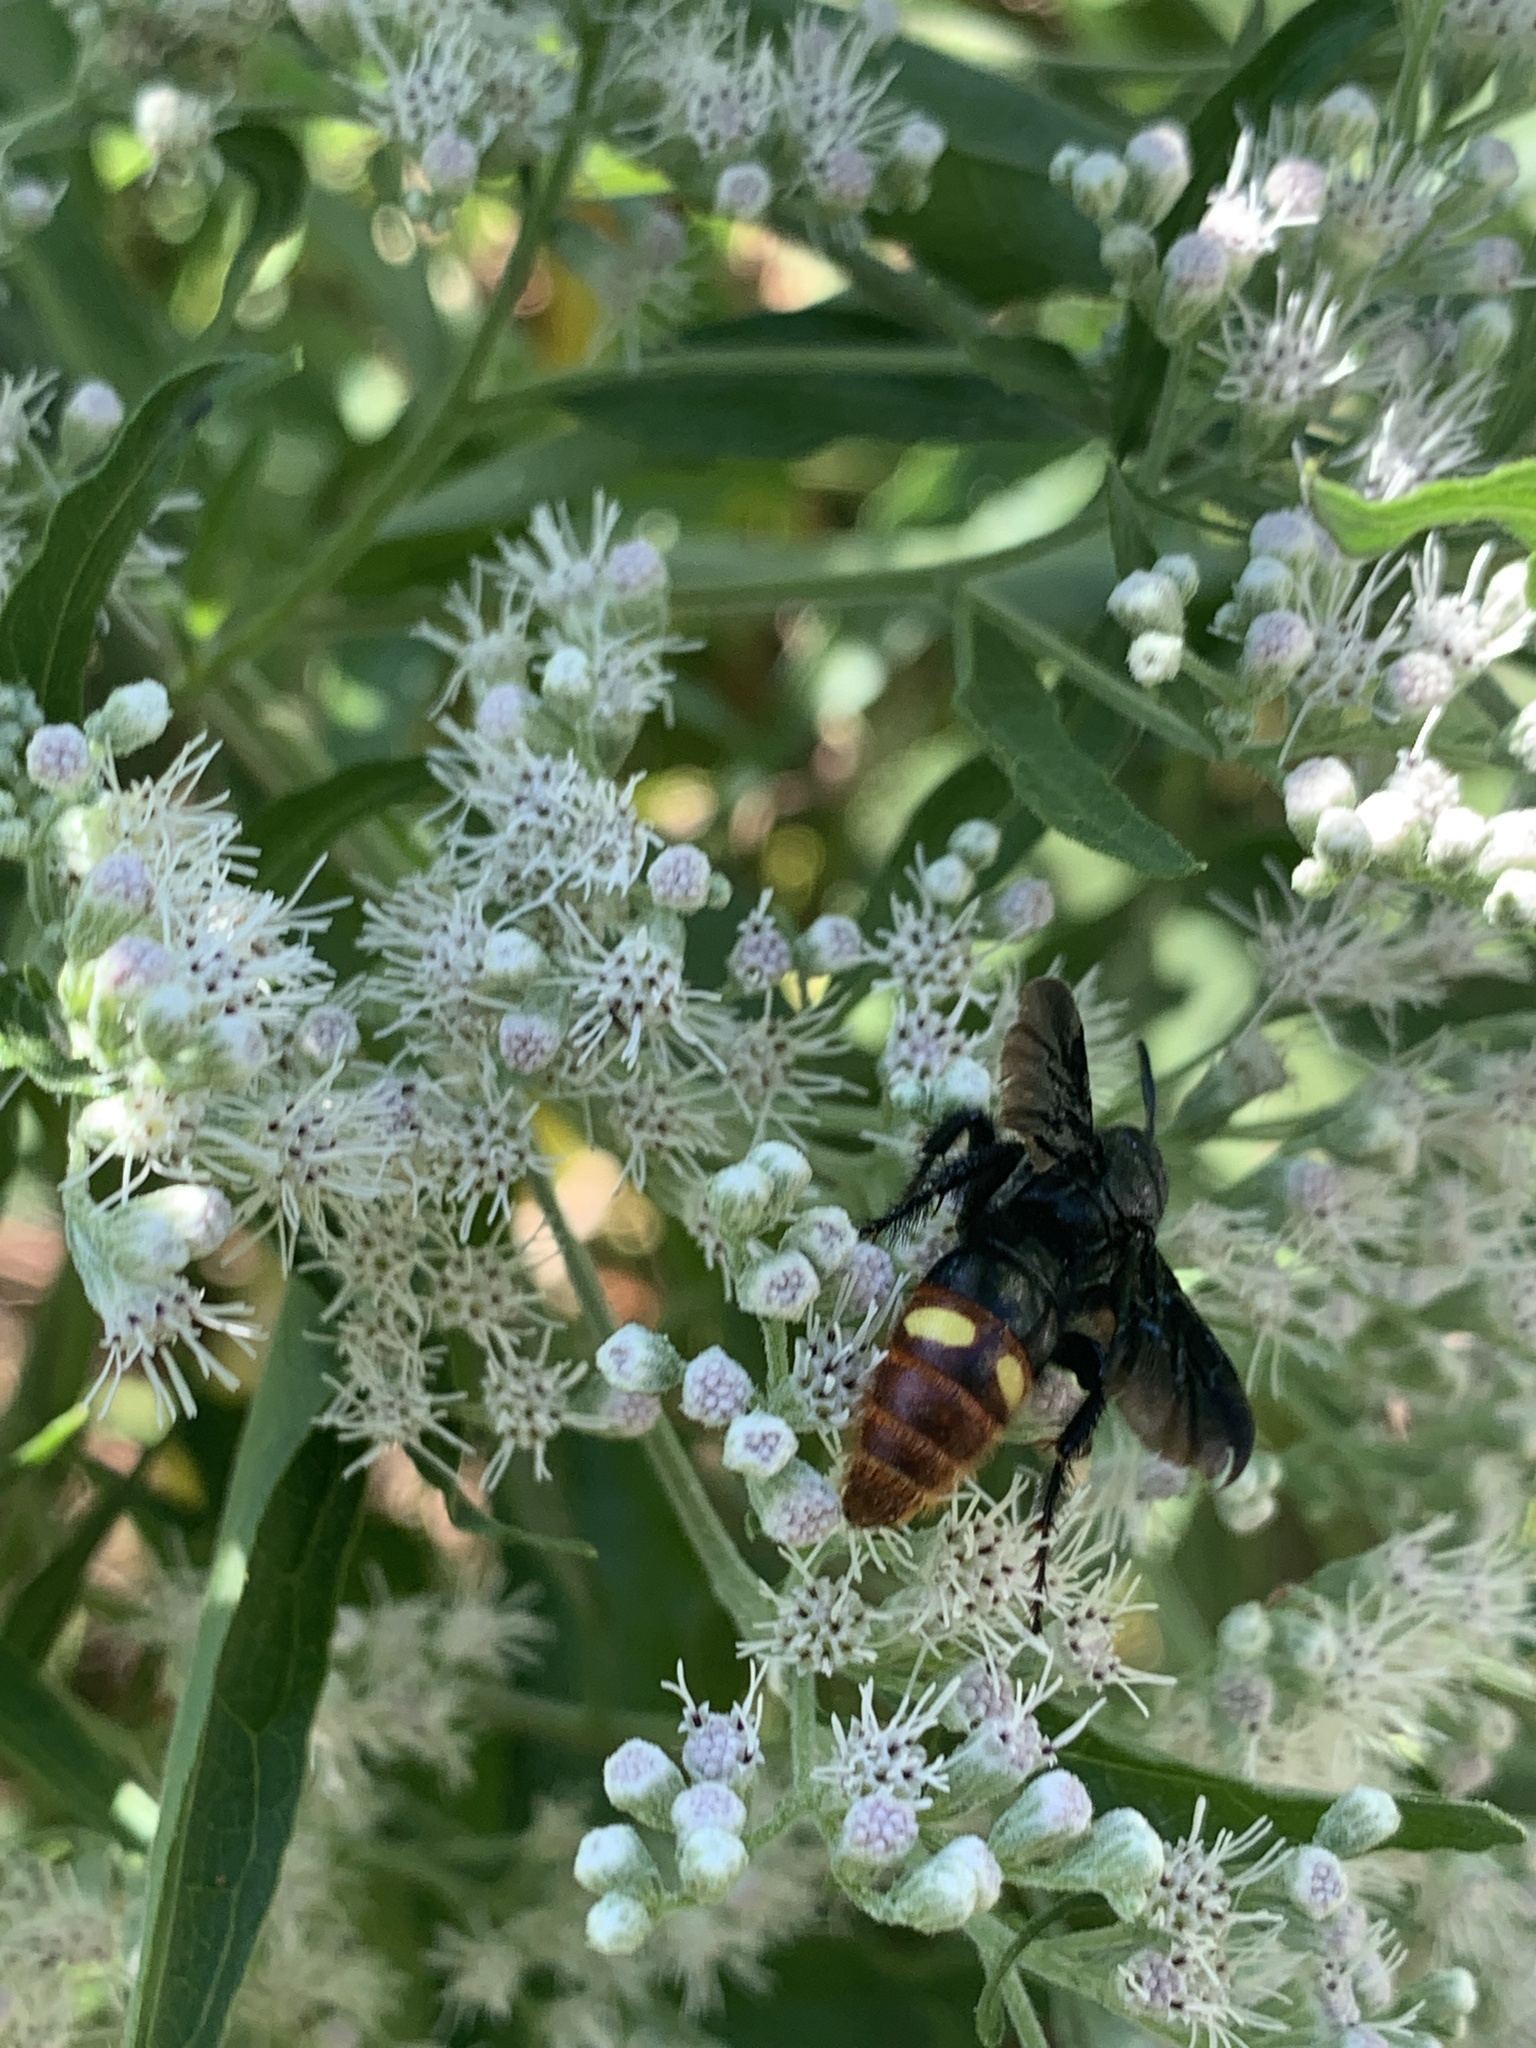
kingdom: Animalia
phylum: Arthropoda
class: Insecta
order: Hymenoptera
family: Scoliidae
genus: Scolia
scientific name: Scolia dubia
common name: Blue-winged scoliid wasp
